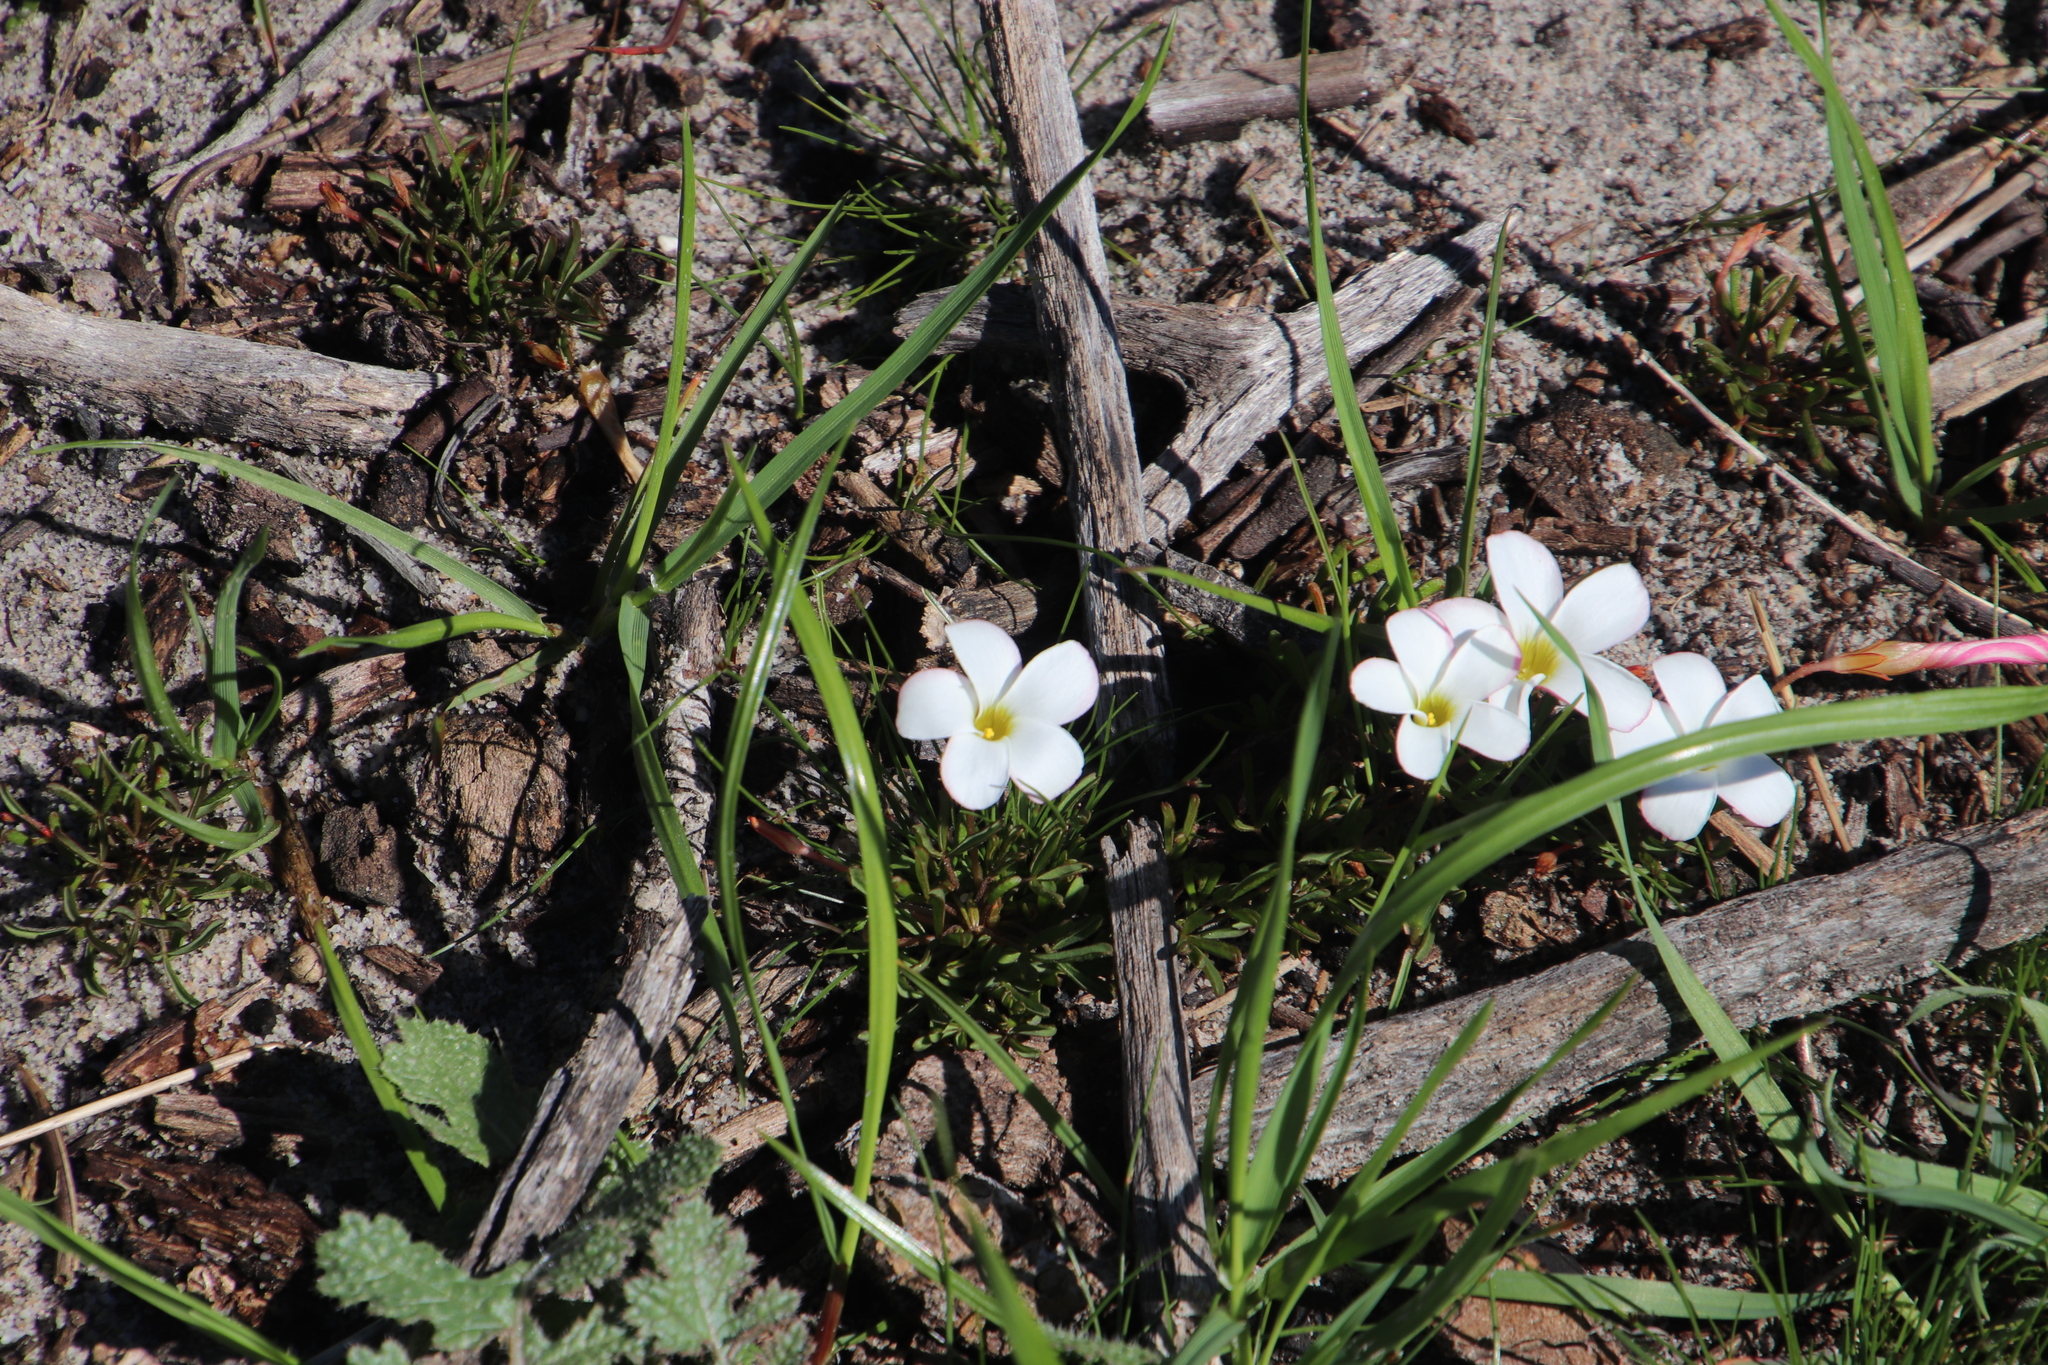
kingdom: Plantae
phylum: Tracheophyta
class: Magnoliopsida
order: Oxalidales
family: Oxalidaceae
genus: Oxalis
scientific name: Oxalis versicolor
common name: Peppermint rock oxalis
